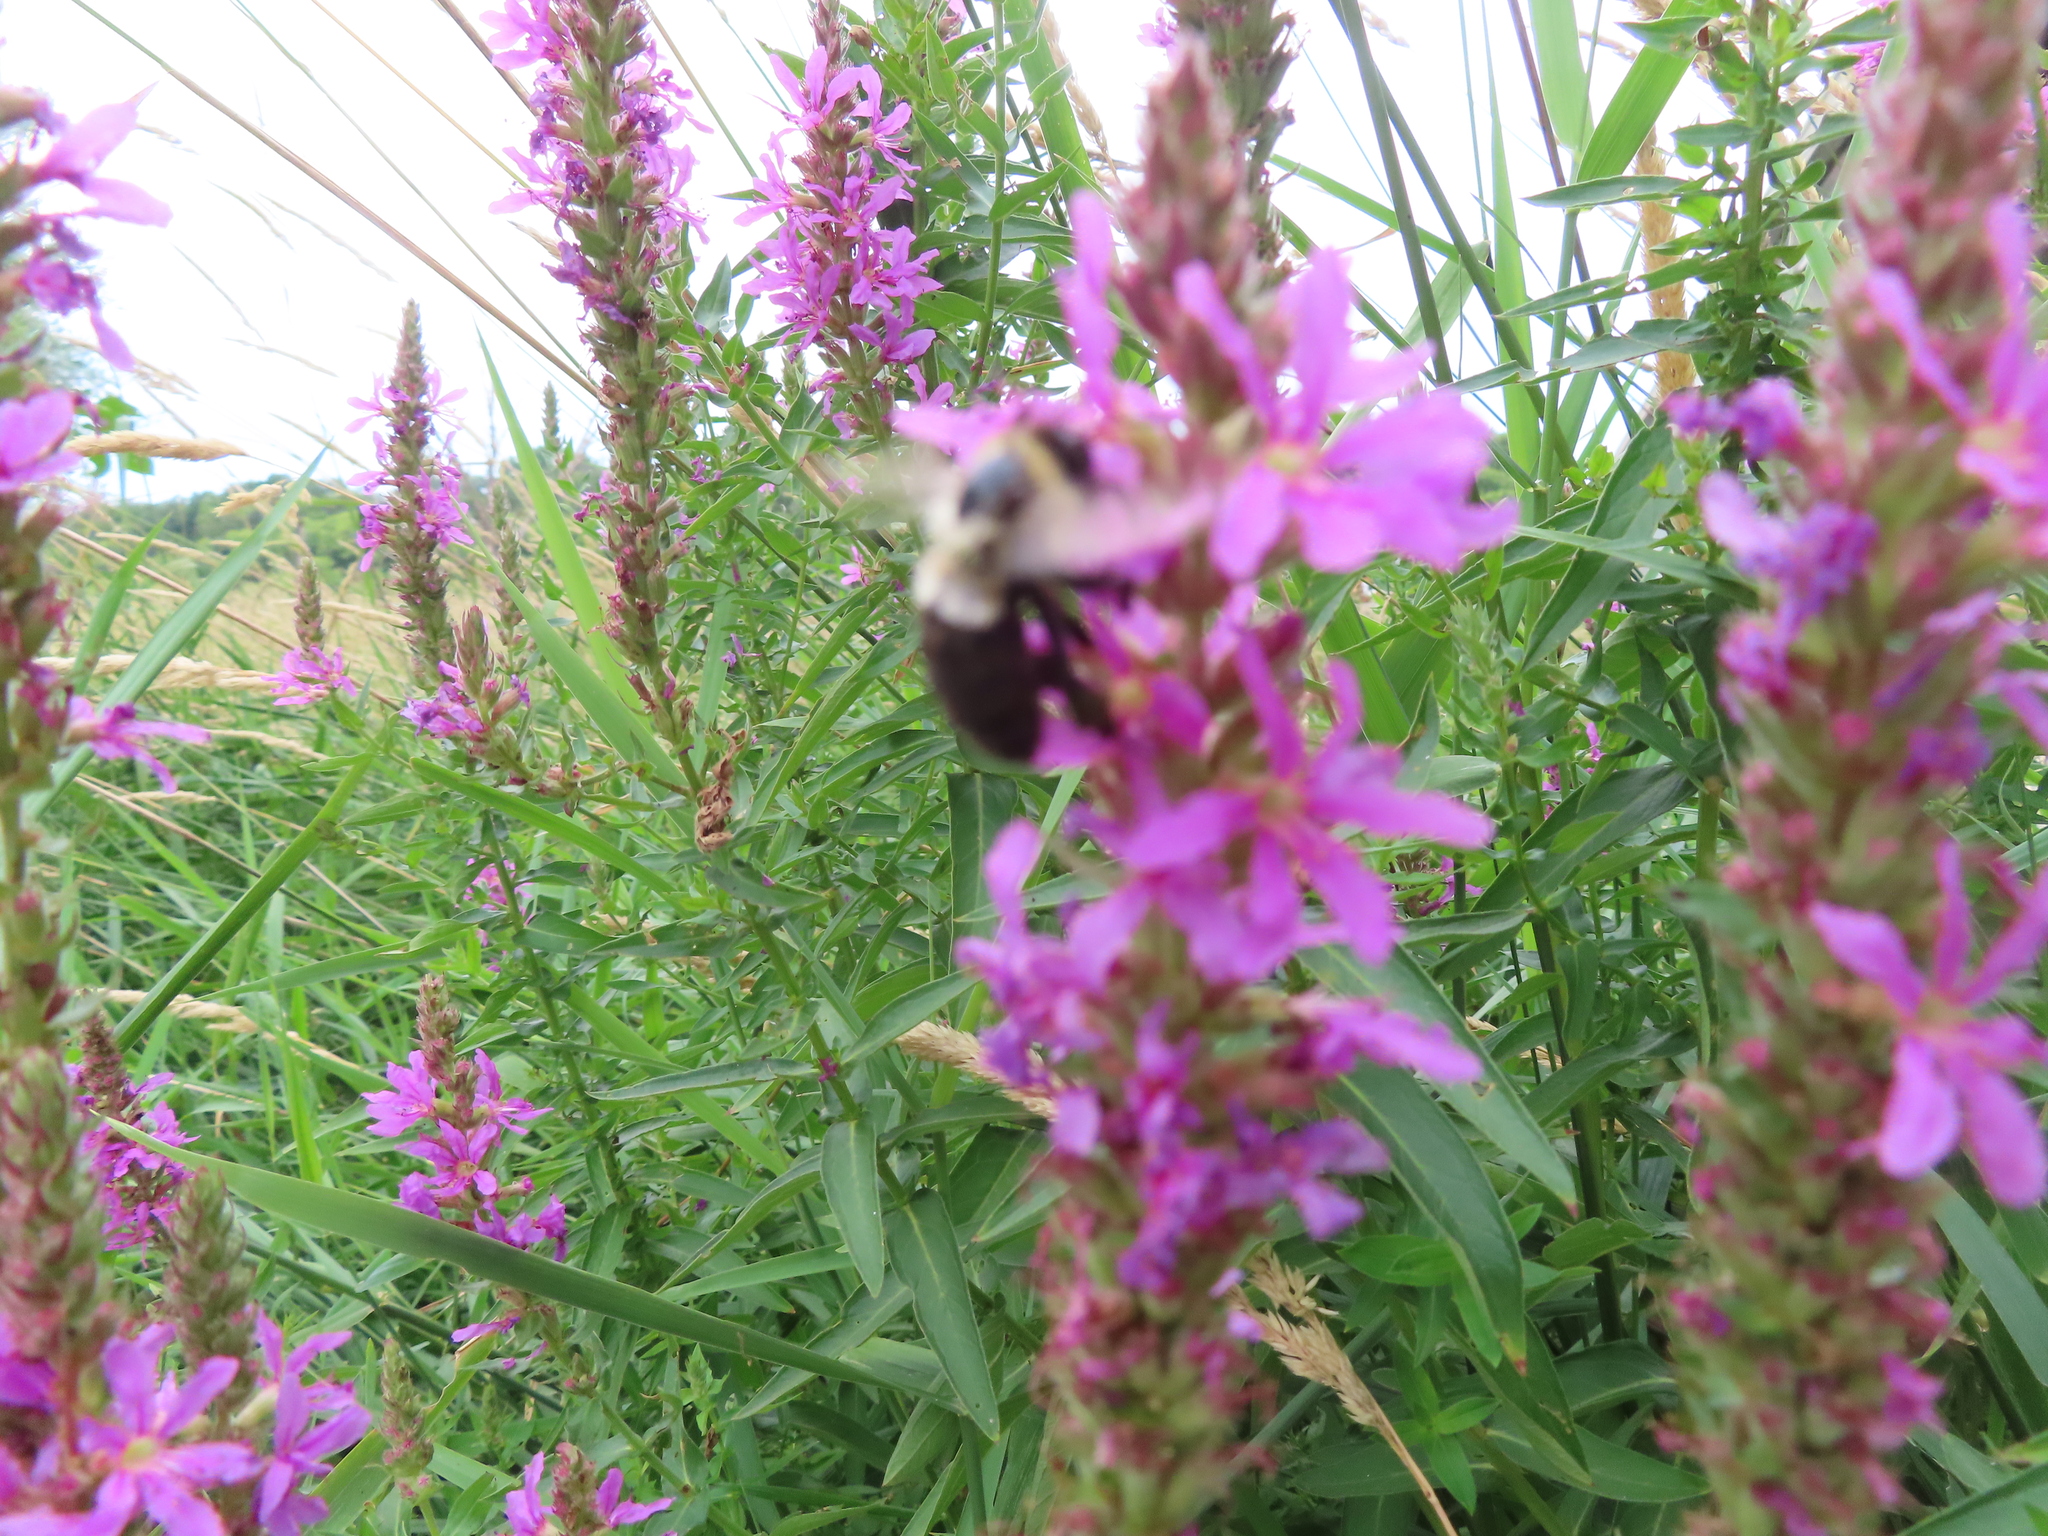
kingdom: Animalia
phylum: Arthropoda
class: Insecta
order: Hymenoptera
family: Apidae
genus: Bombus
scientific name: Bombus impatiens
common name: Common eastern bumble bee
